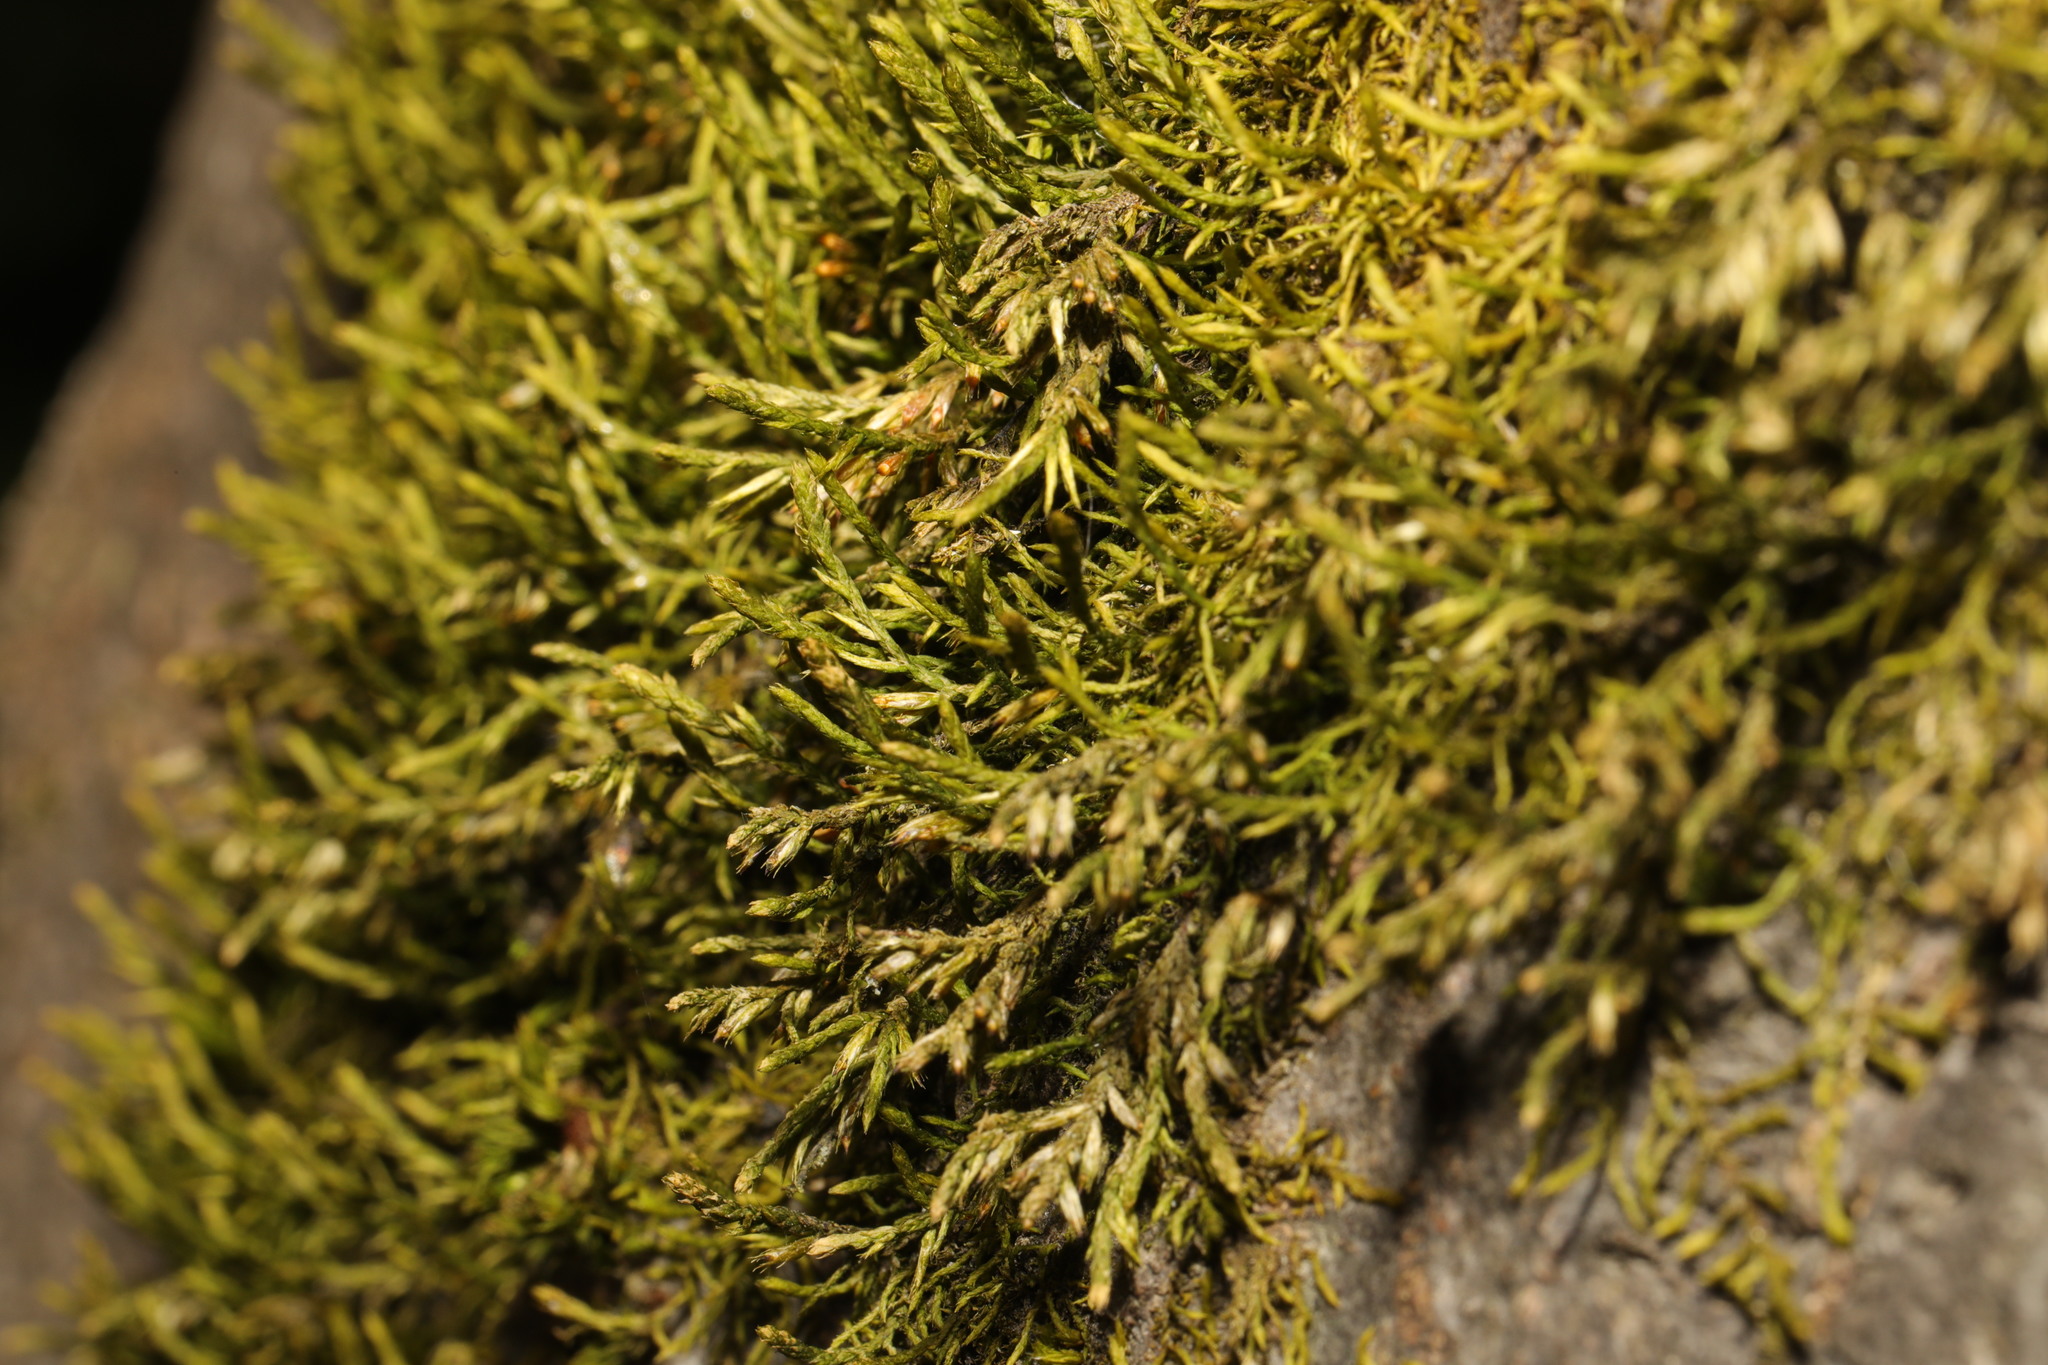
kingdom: Plantae
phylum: Bryophyta
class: Bryopsida
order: Hypnales
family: Cryphaeaceae
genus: Cryphaea
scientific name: Cryphaea heteromalla
